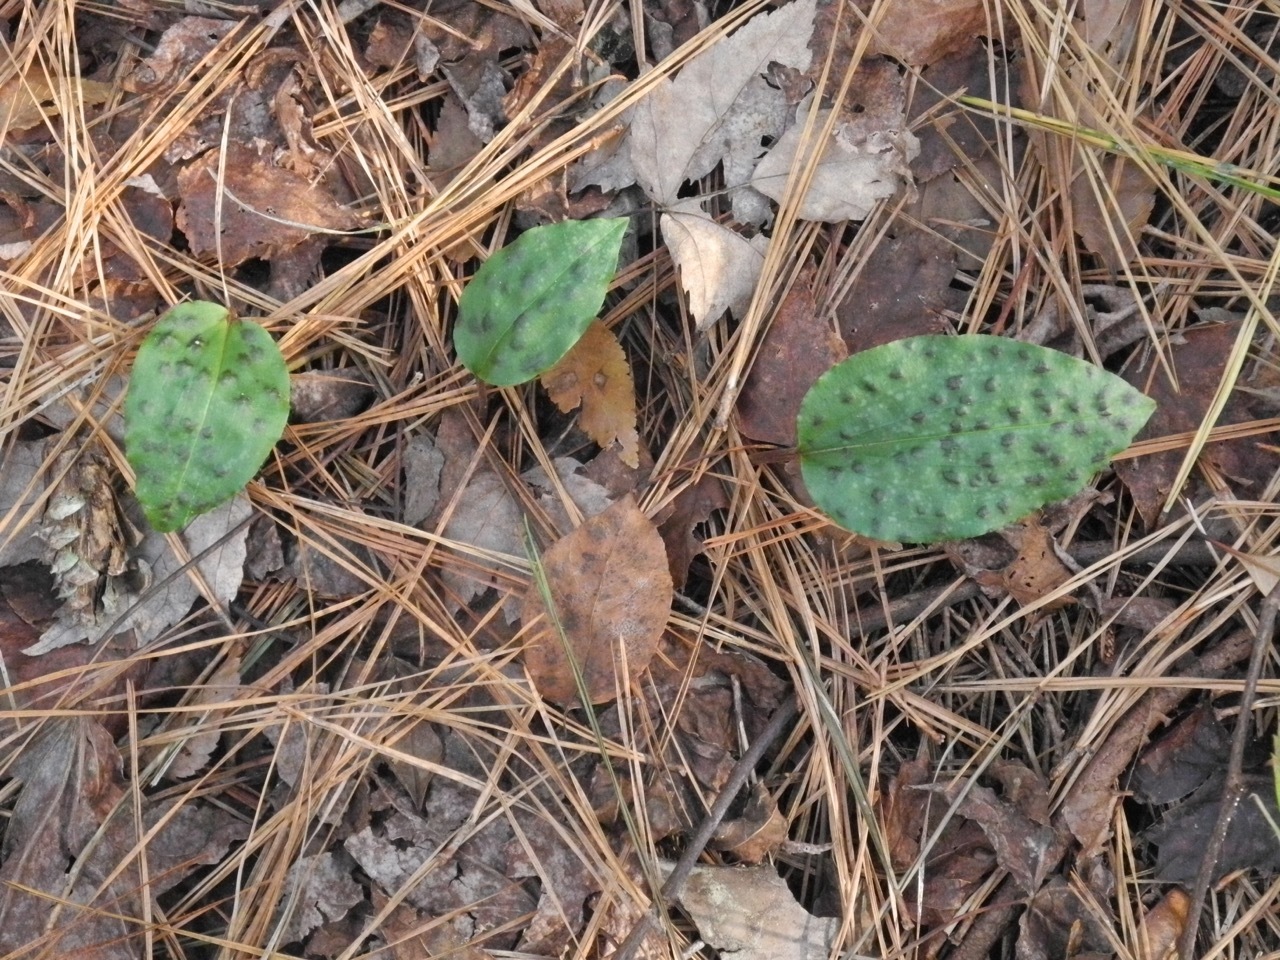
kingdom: Plantae
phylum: Tracheophyta
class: Liliopsida
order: Asparagales
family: Orchidaceae
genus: Tipularia
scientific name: Tipularia discolor
